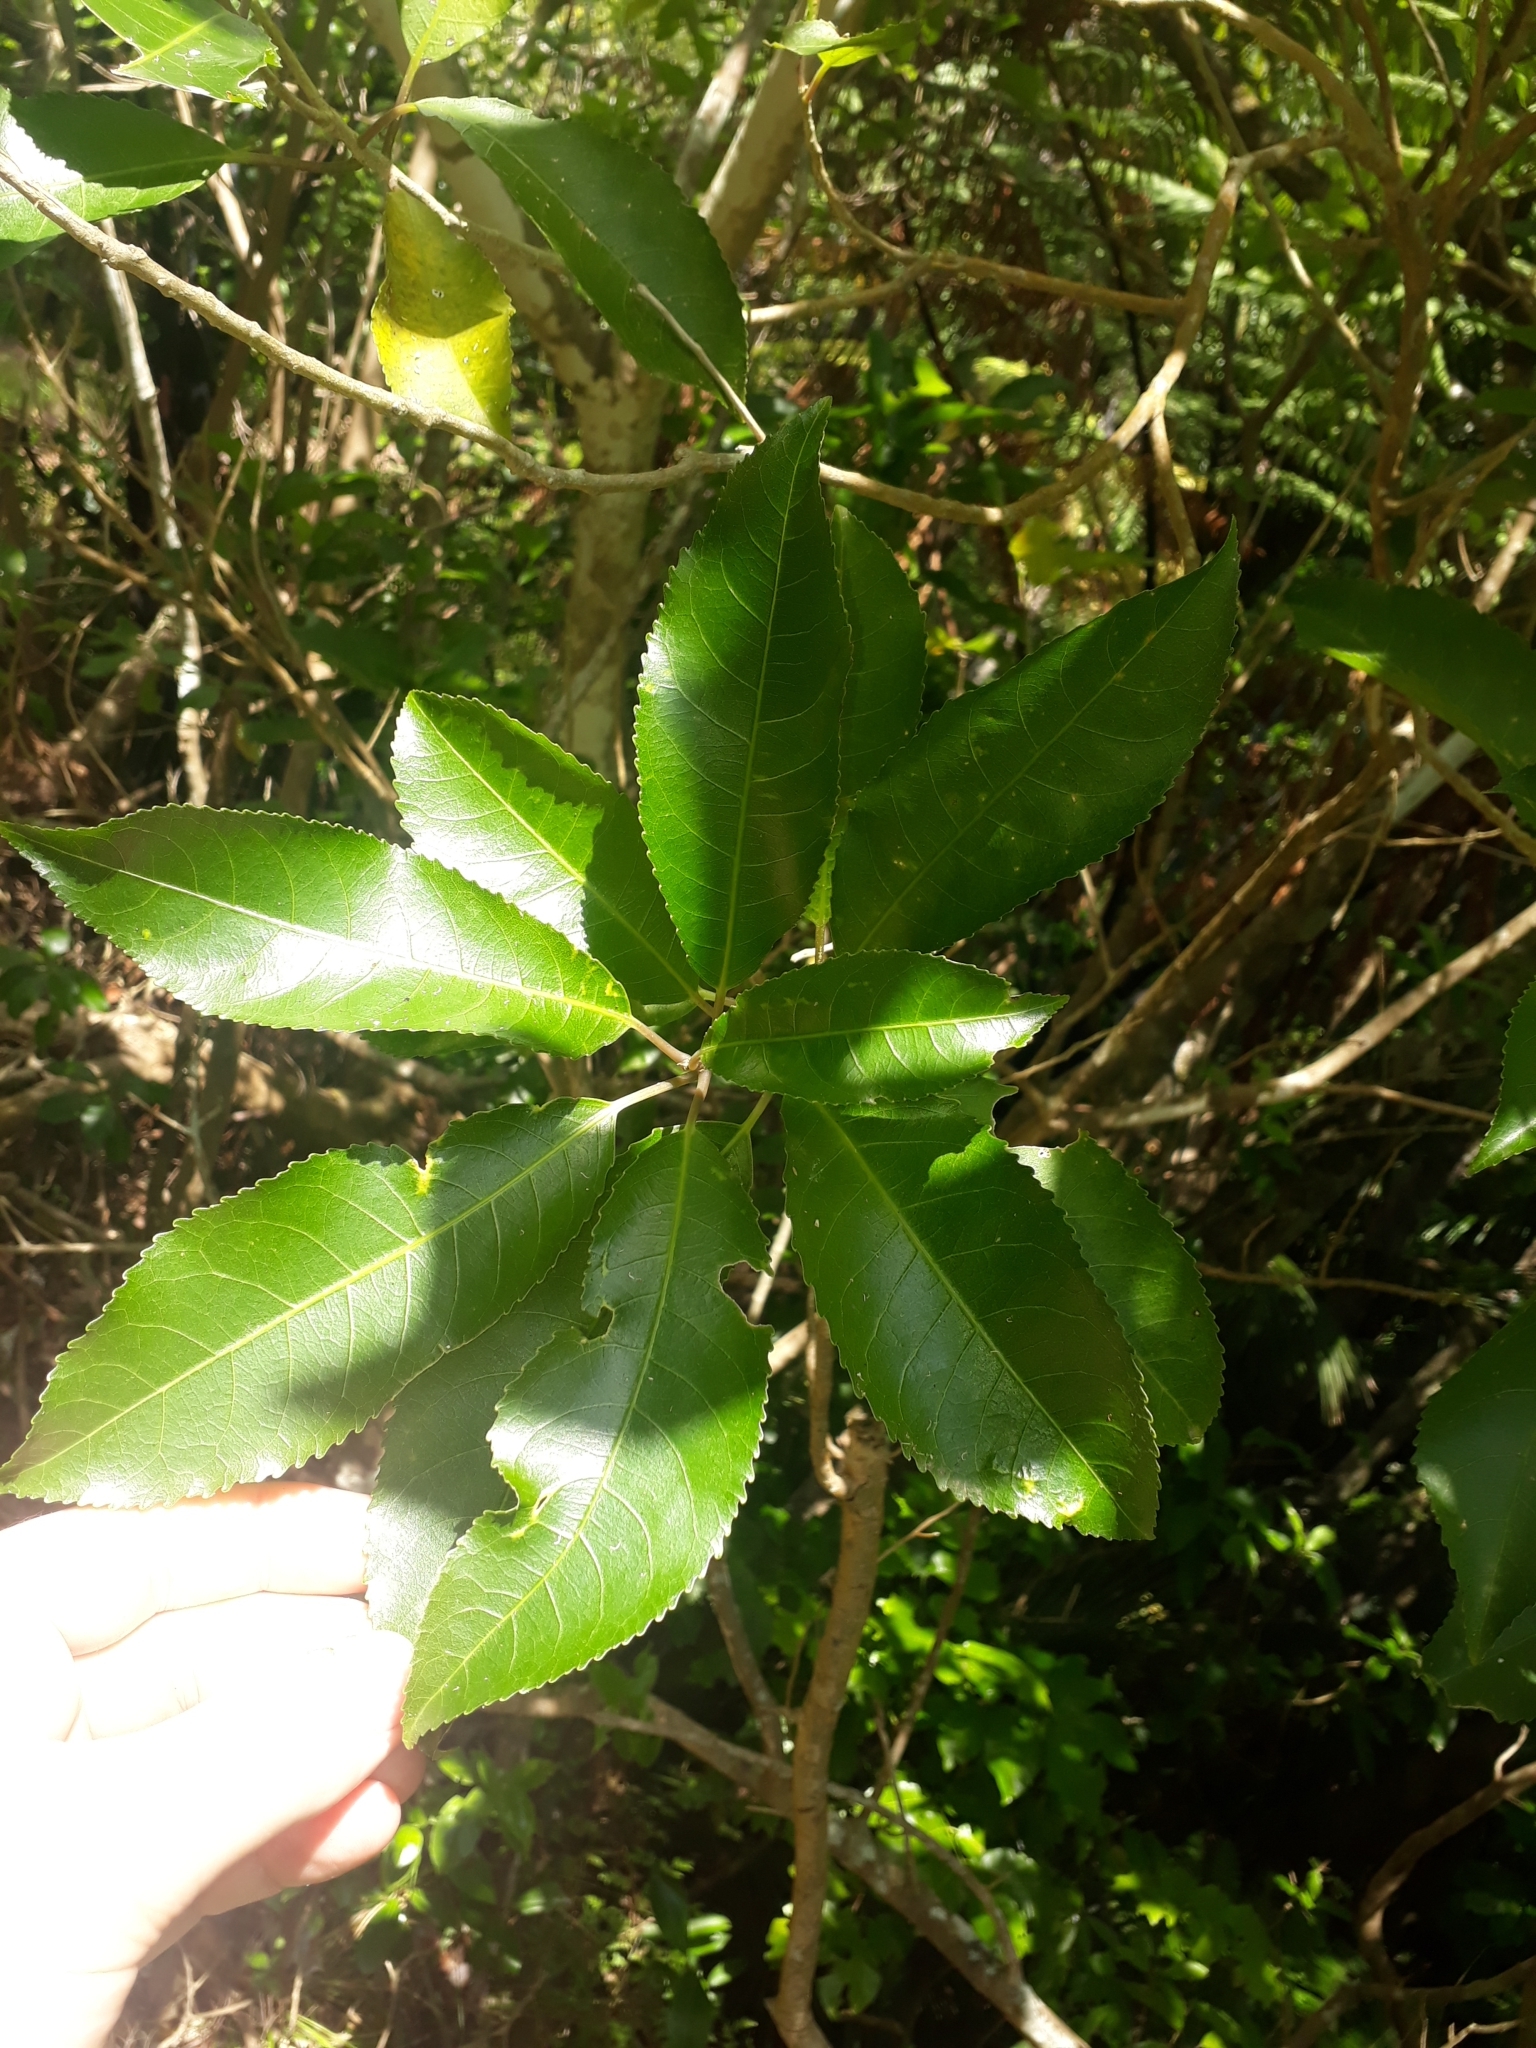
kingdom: Plantae
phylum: Tracheophyta
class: Magnoliopsida
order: Malpighiales
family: Violaceae
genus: Melicytus
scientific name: Melicytus ramiflorus
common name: Mahoe
